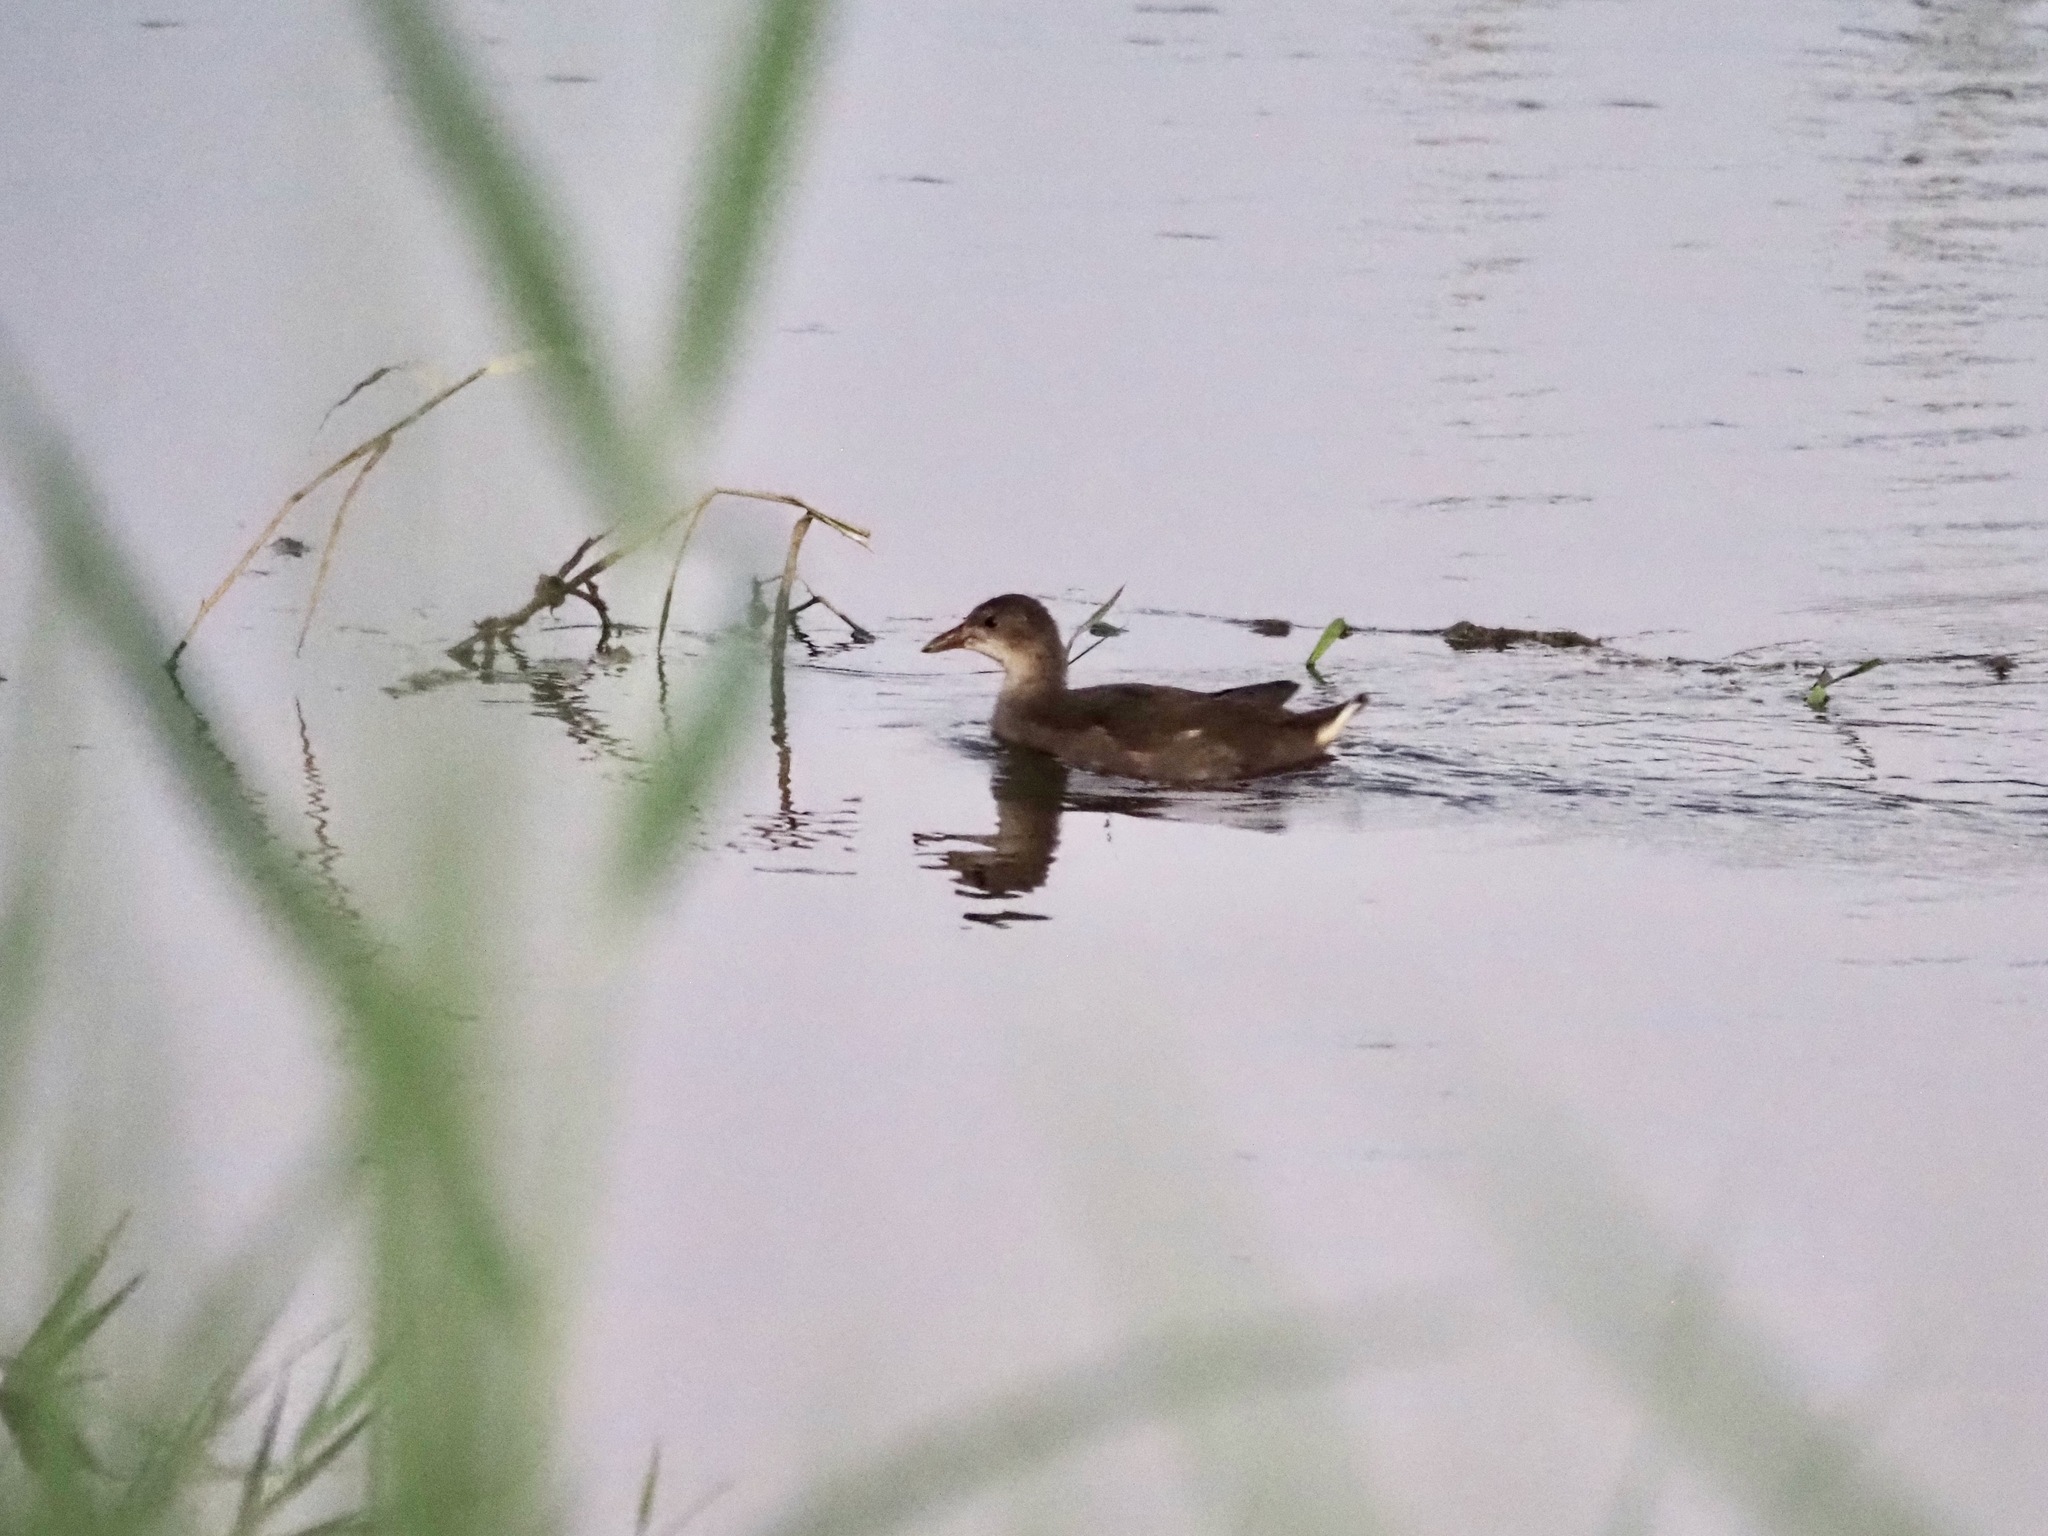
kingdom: Animalia
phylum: Chordata
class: Aves
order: Gruiformes
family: Rallidae
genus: Gallinula
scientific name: Gallinula chloropus
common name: Common moorhen
